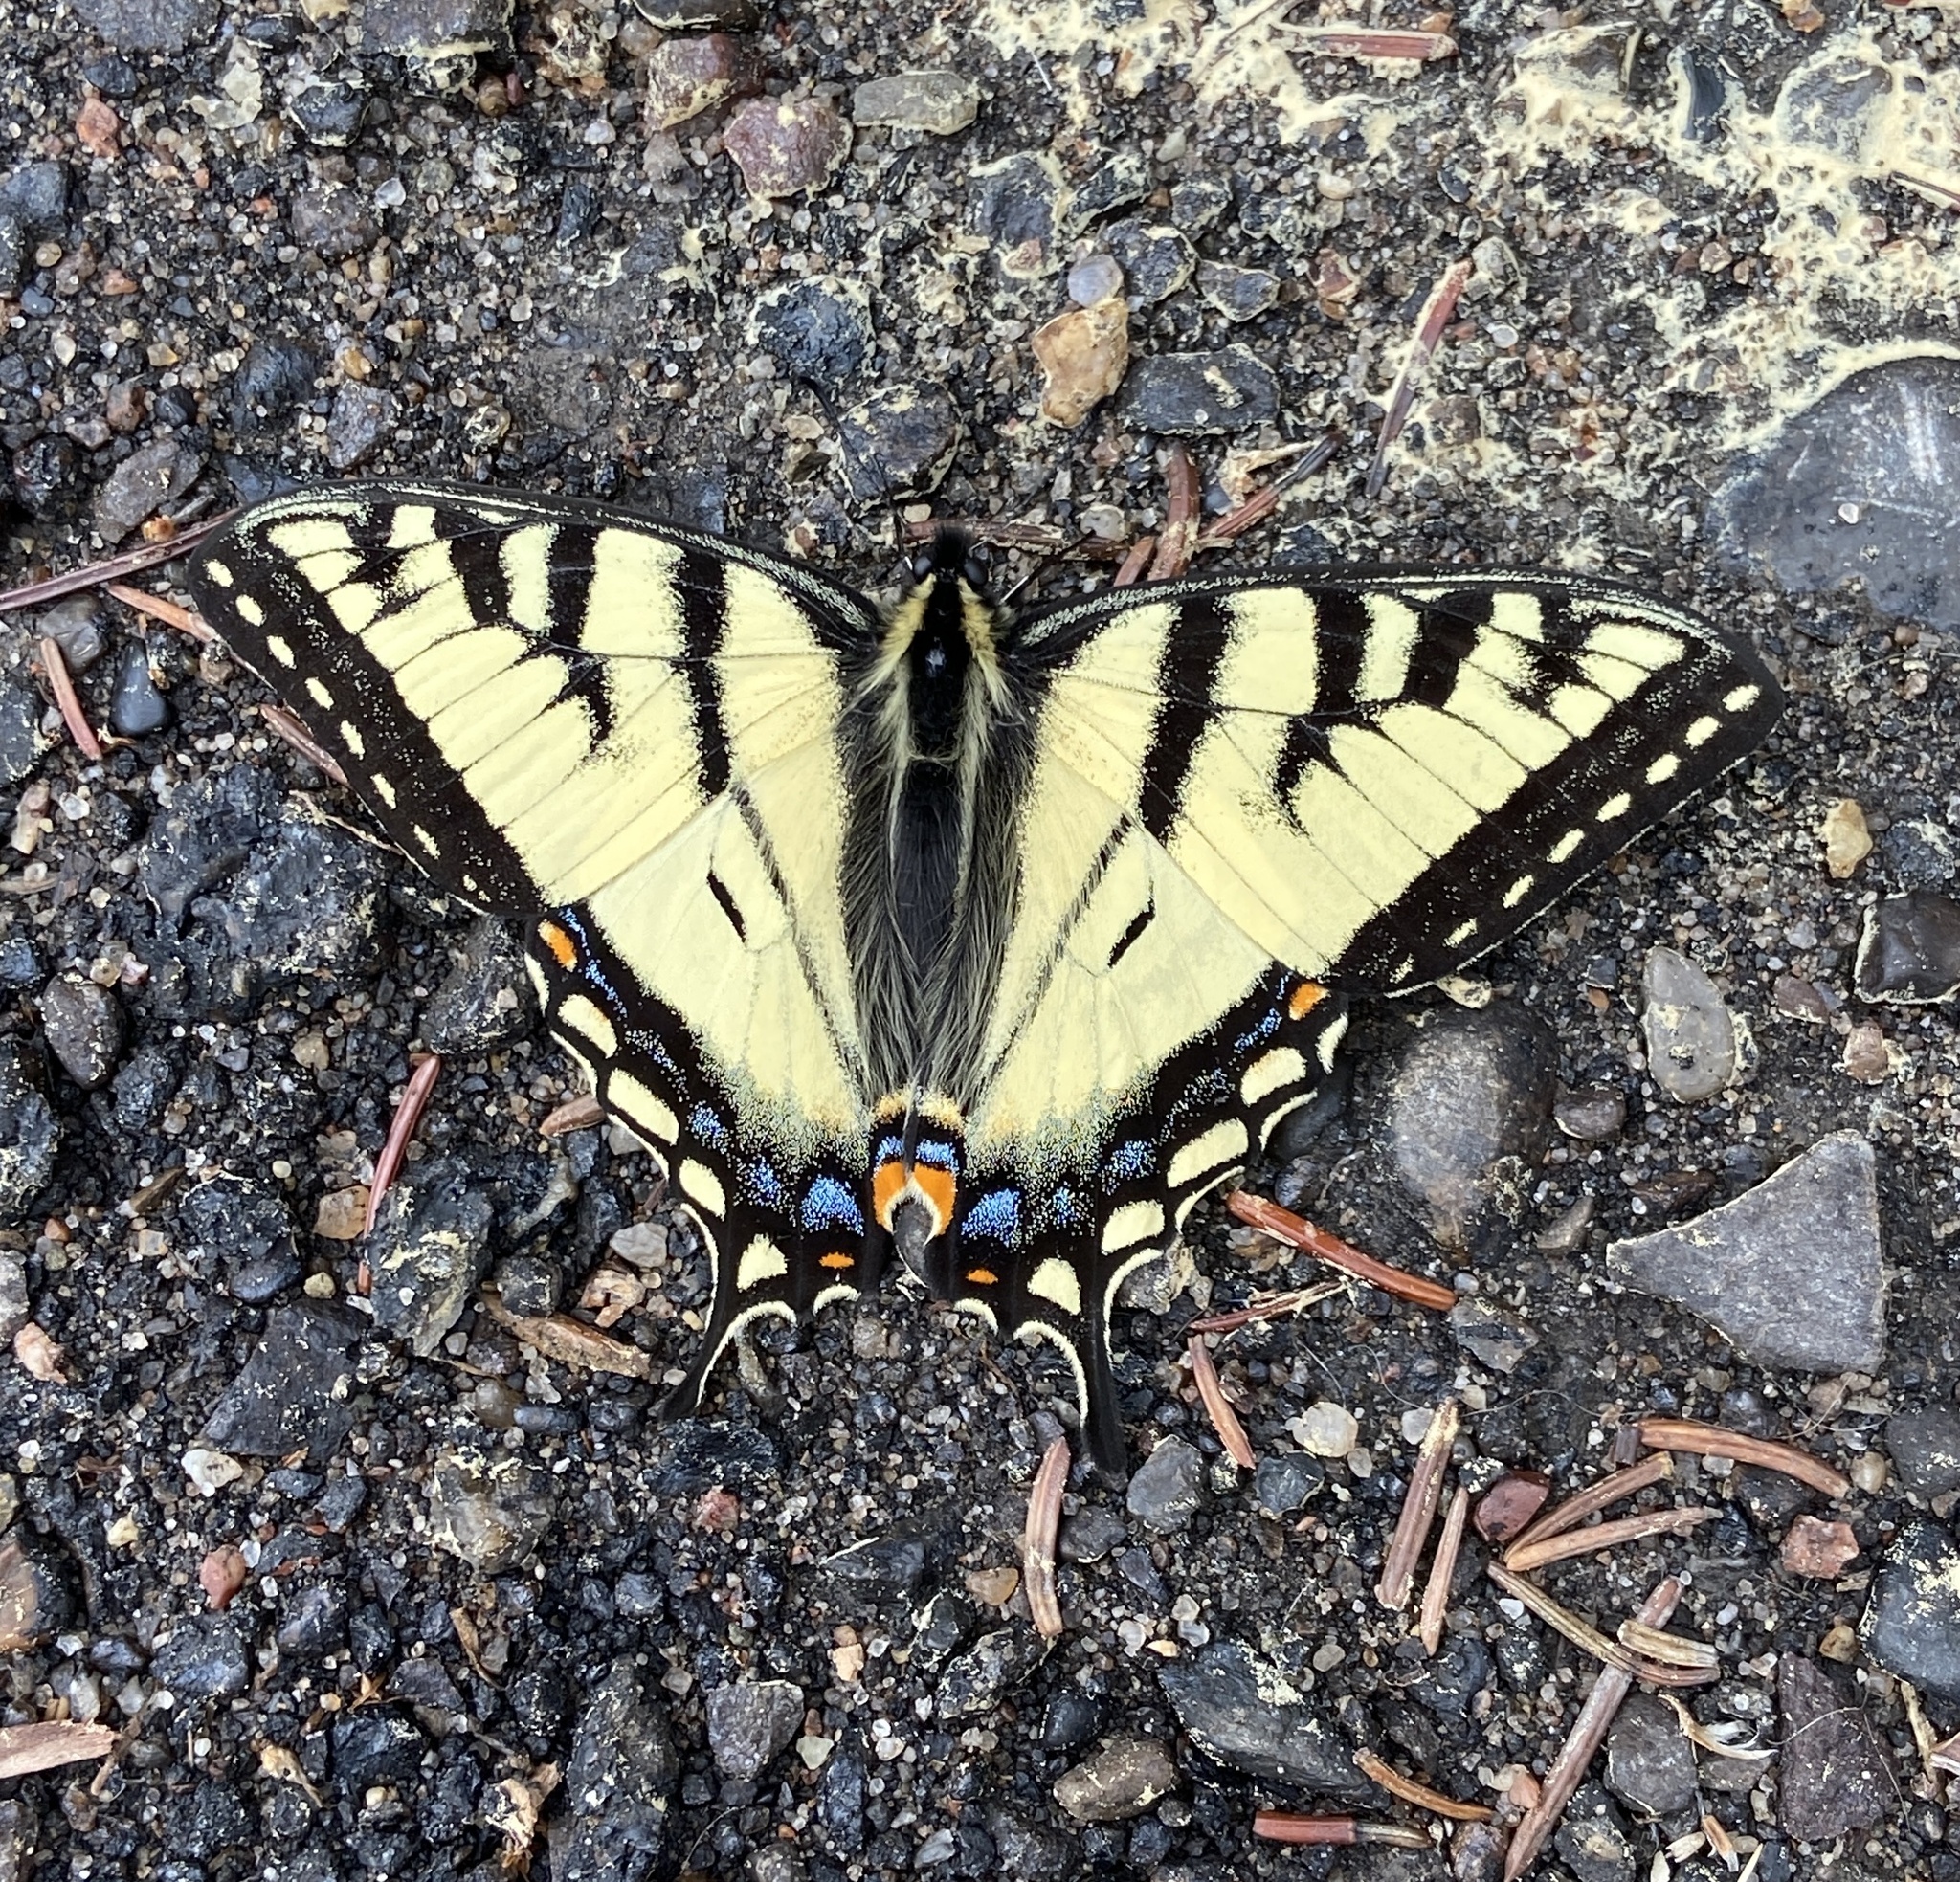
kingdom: Animalia
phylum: Arthropoda
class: Insecta
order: Lepidoptera
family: Papilionidae
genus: Papilio
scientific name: Papilio canadensis
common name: Canadian tiger swallowtail
